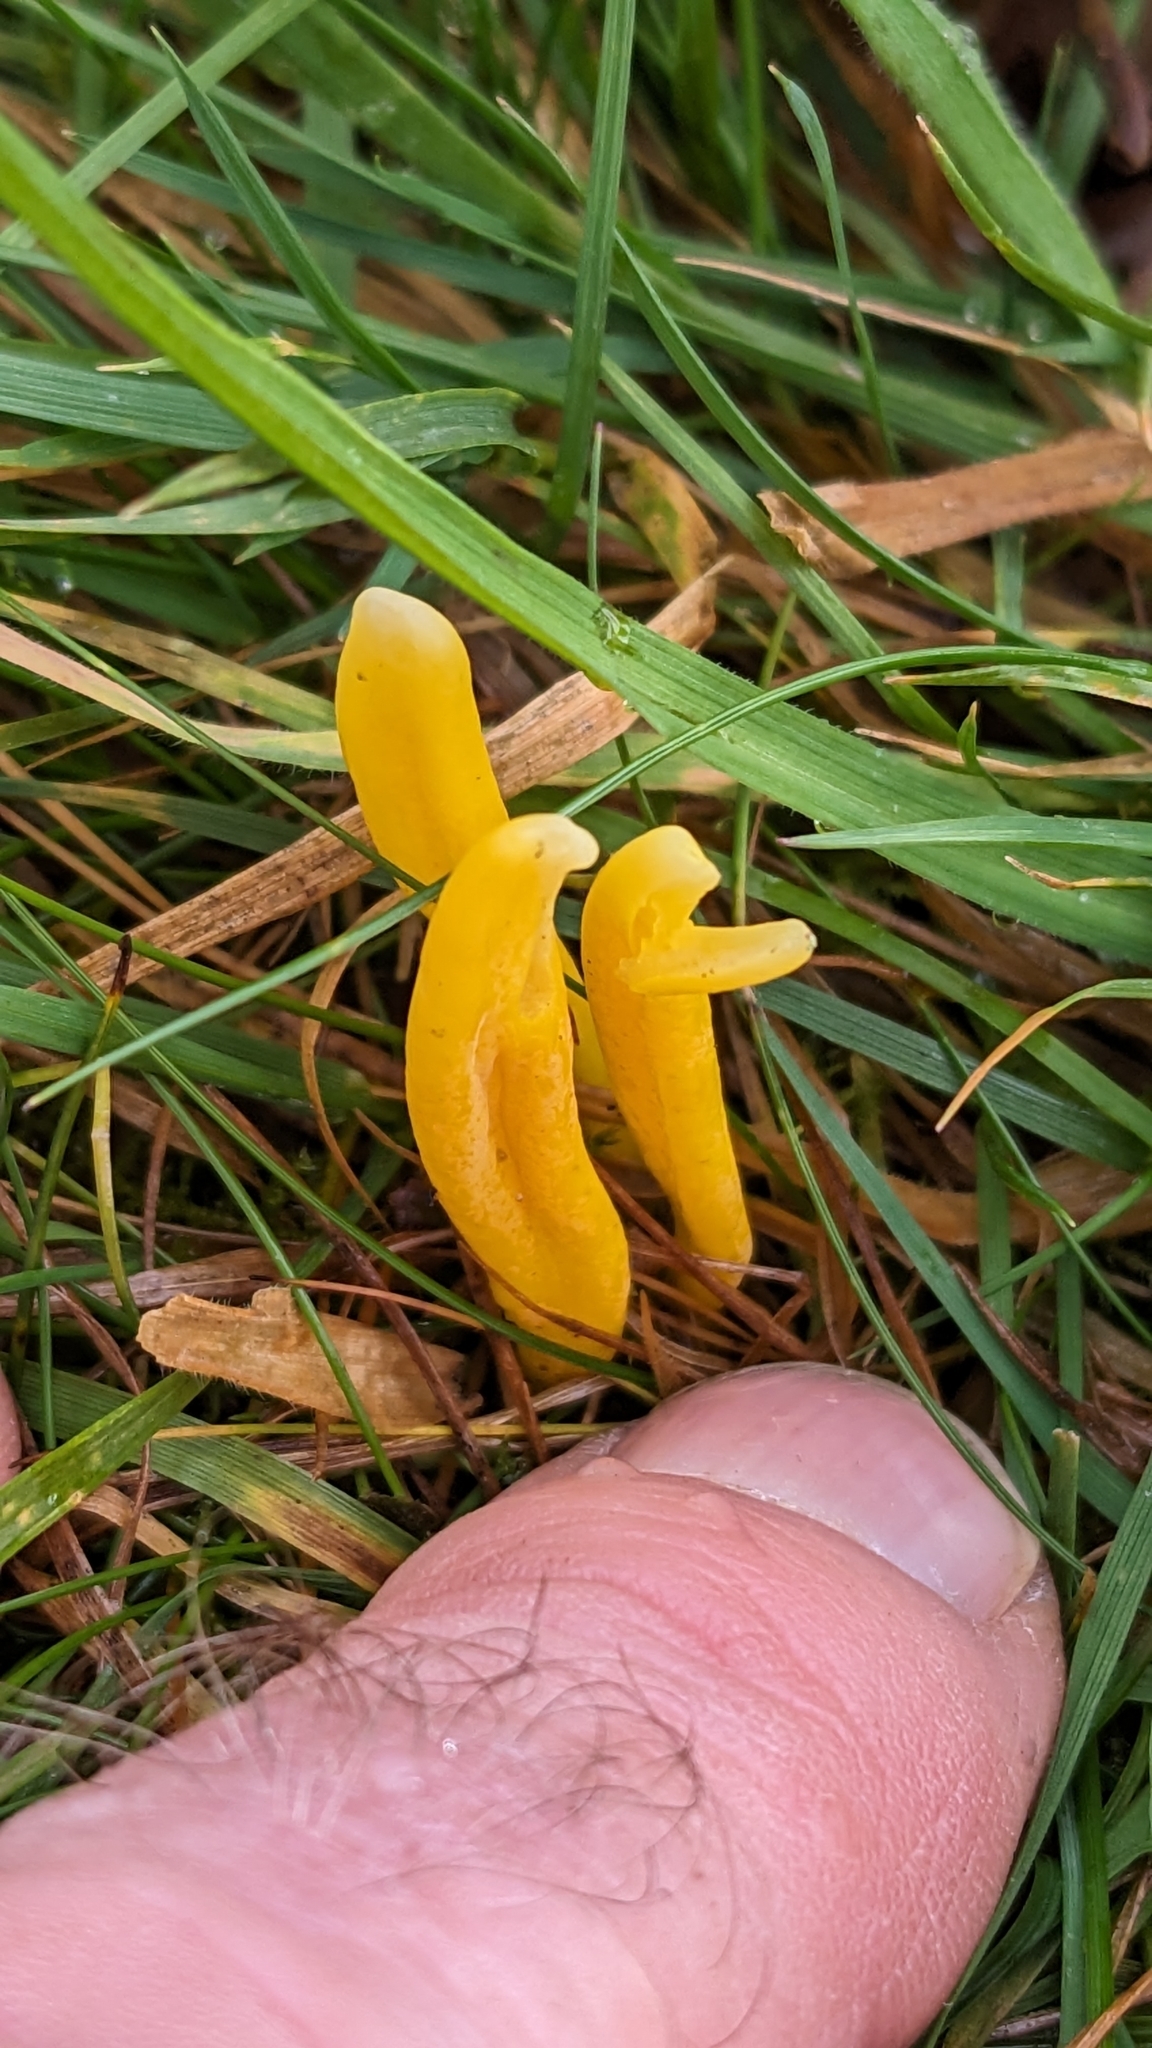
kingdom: Fungi
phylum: Basidiomycota
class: Agaricomycetes
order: Agaricales
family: Clavariaceae
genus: Clavulinopsis
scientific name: Clavulinopsis helvola
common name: Yellow club
